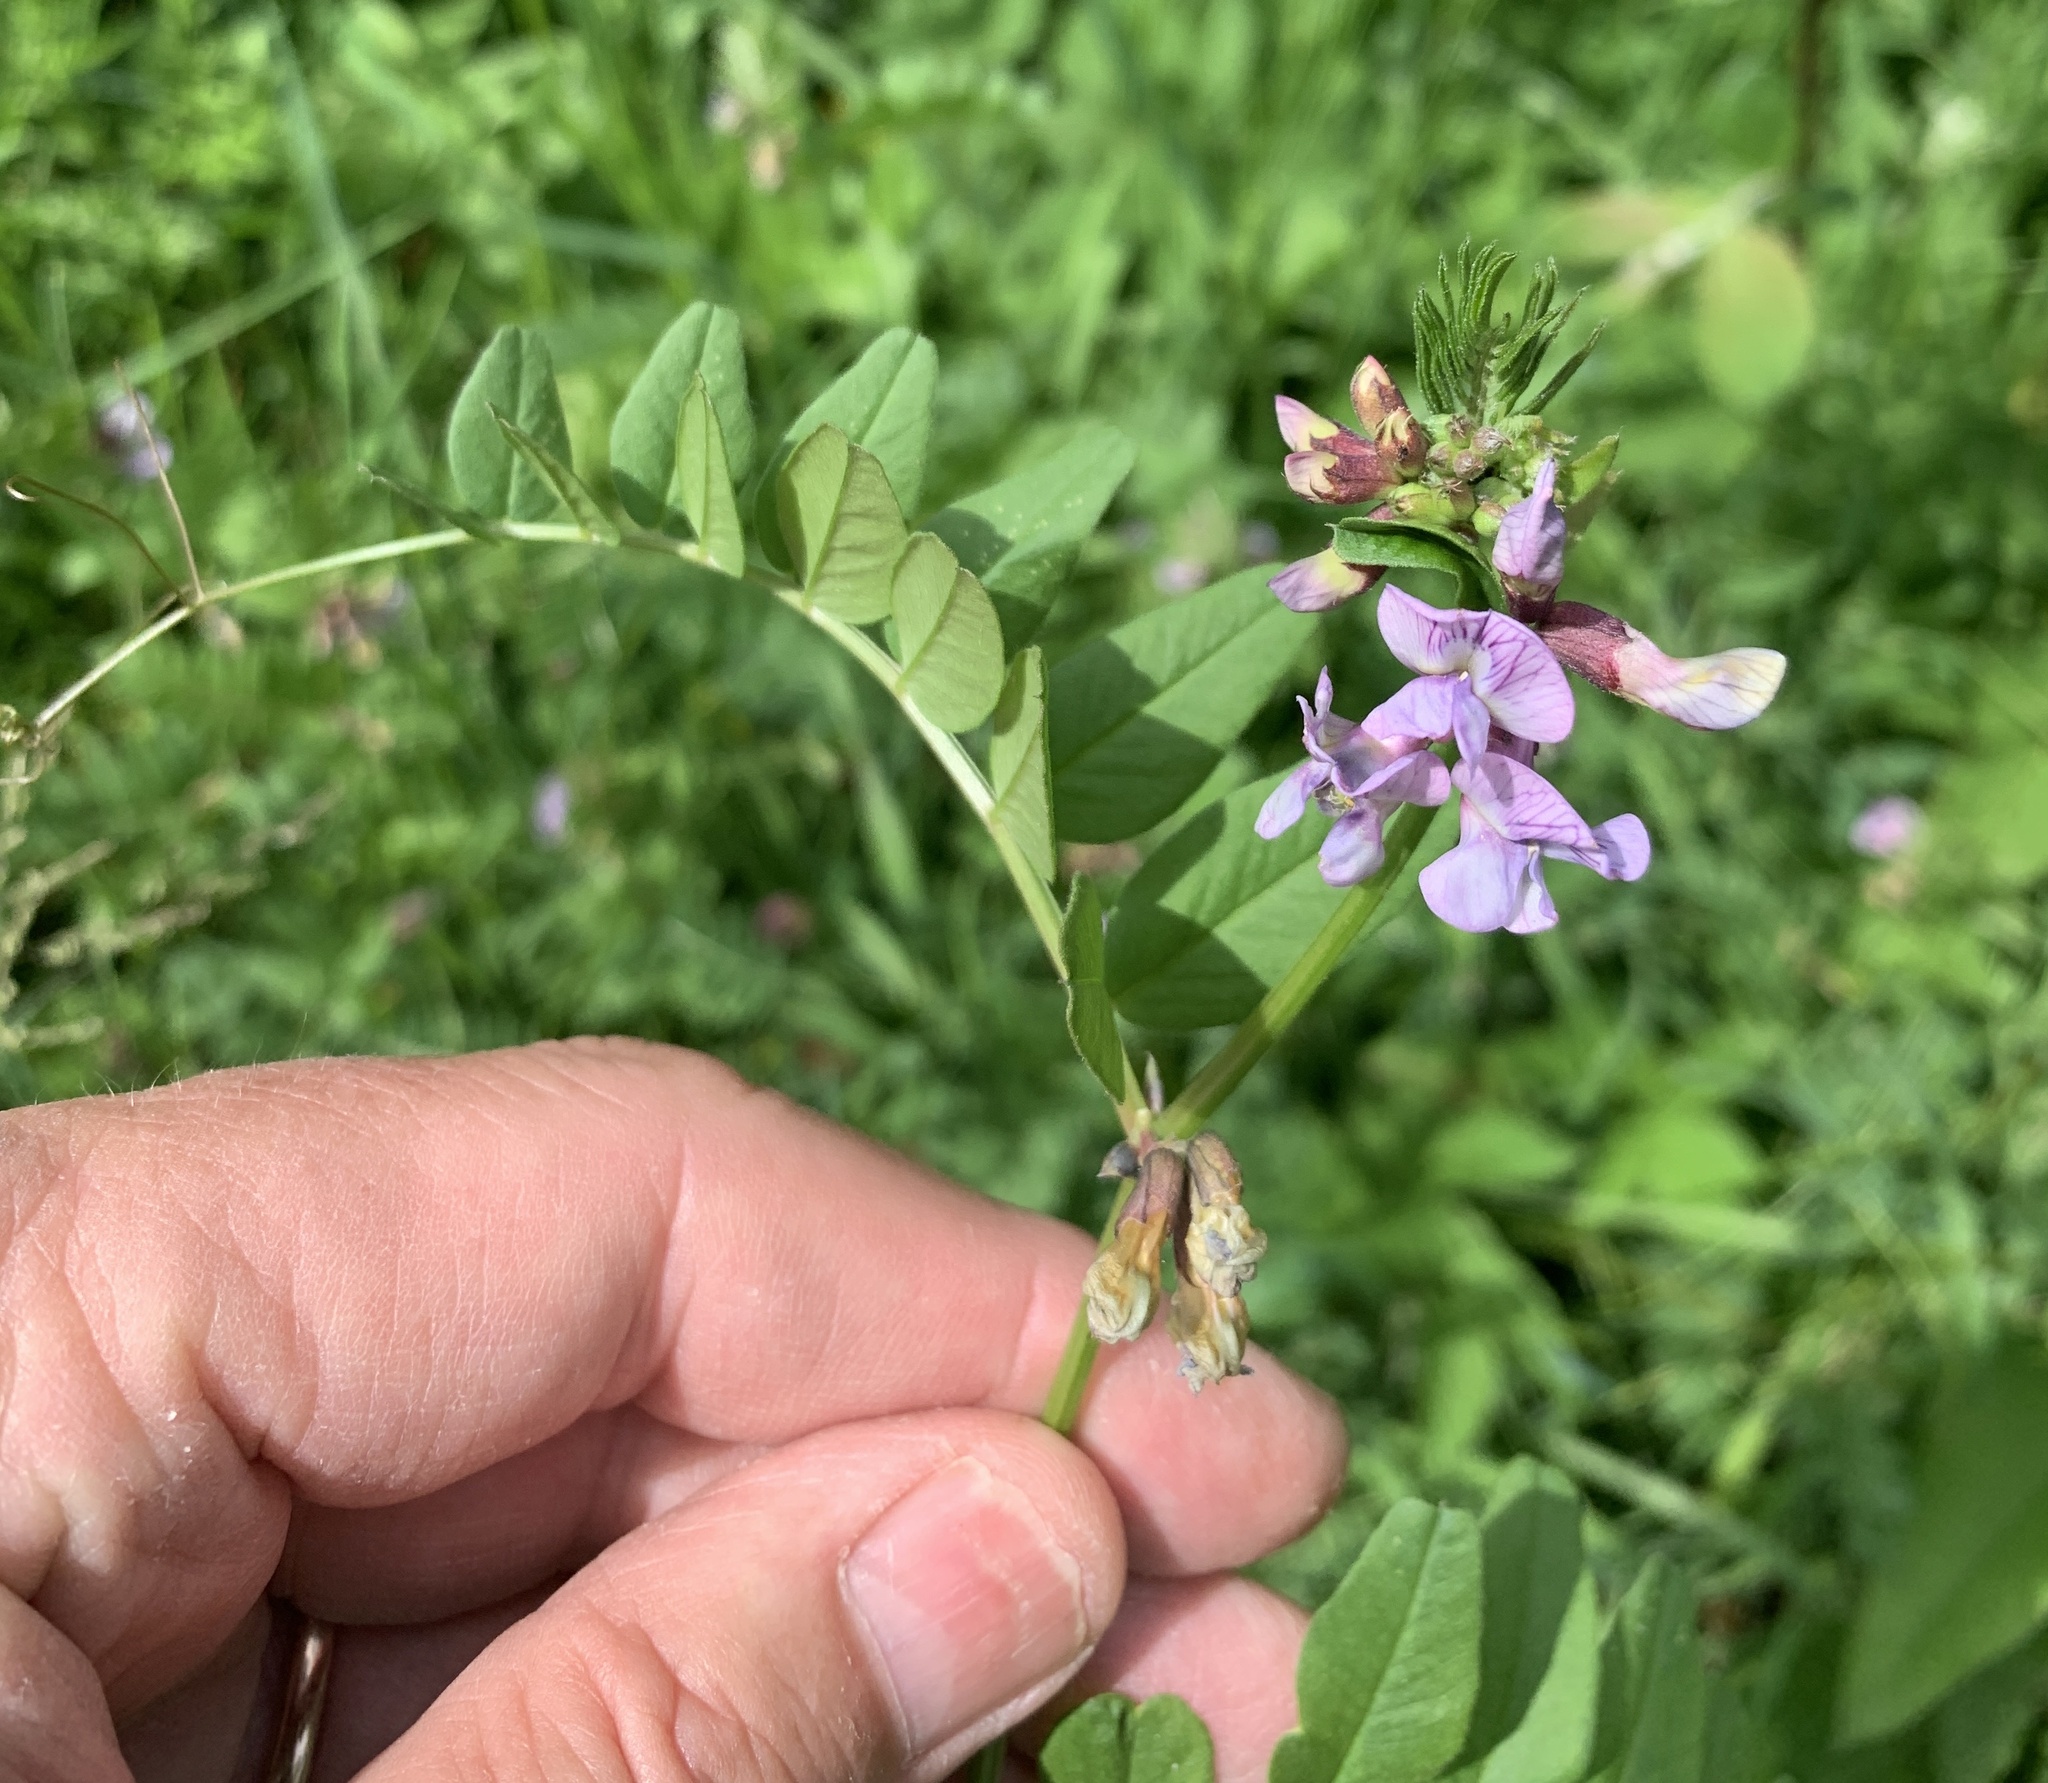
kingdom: Plantae
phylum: Tracheophyta
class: Magnoliopsida
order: Fabales
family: Fabaceae
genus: Vicia
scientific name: Vicia sepium
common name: Bush vetch
